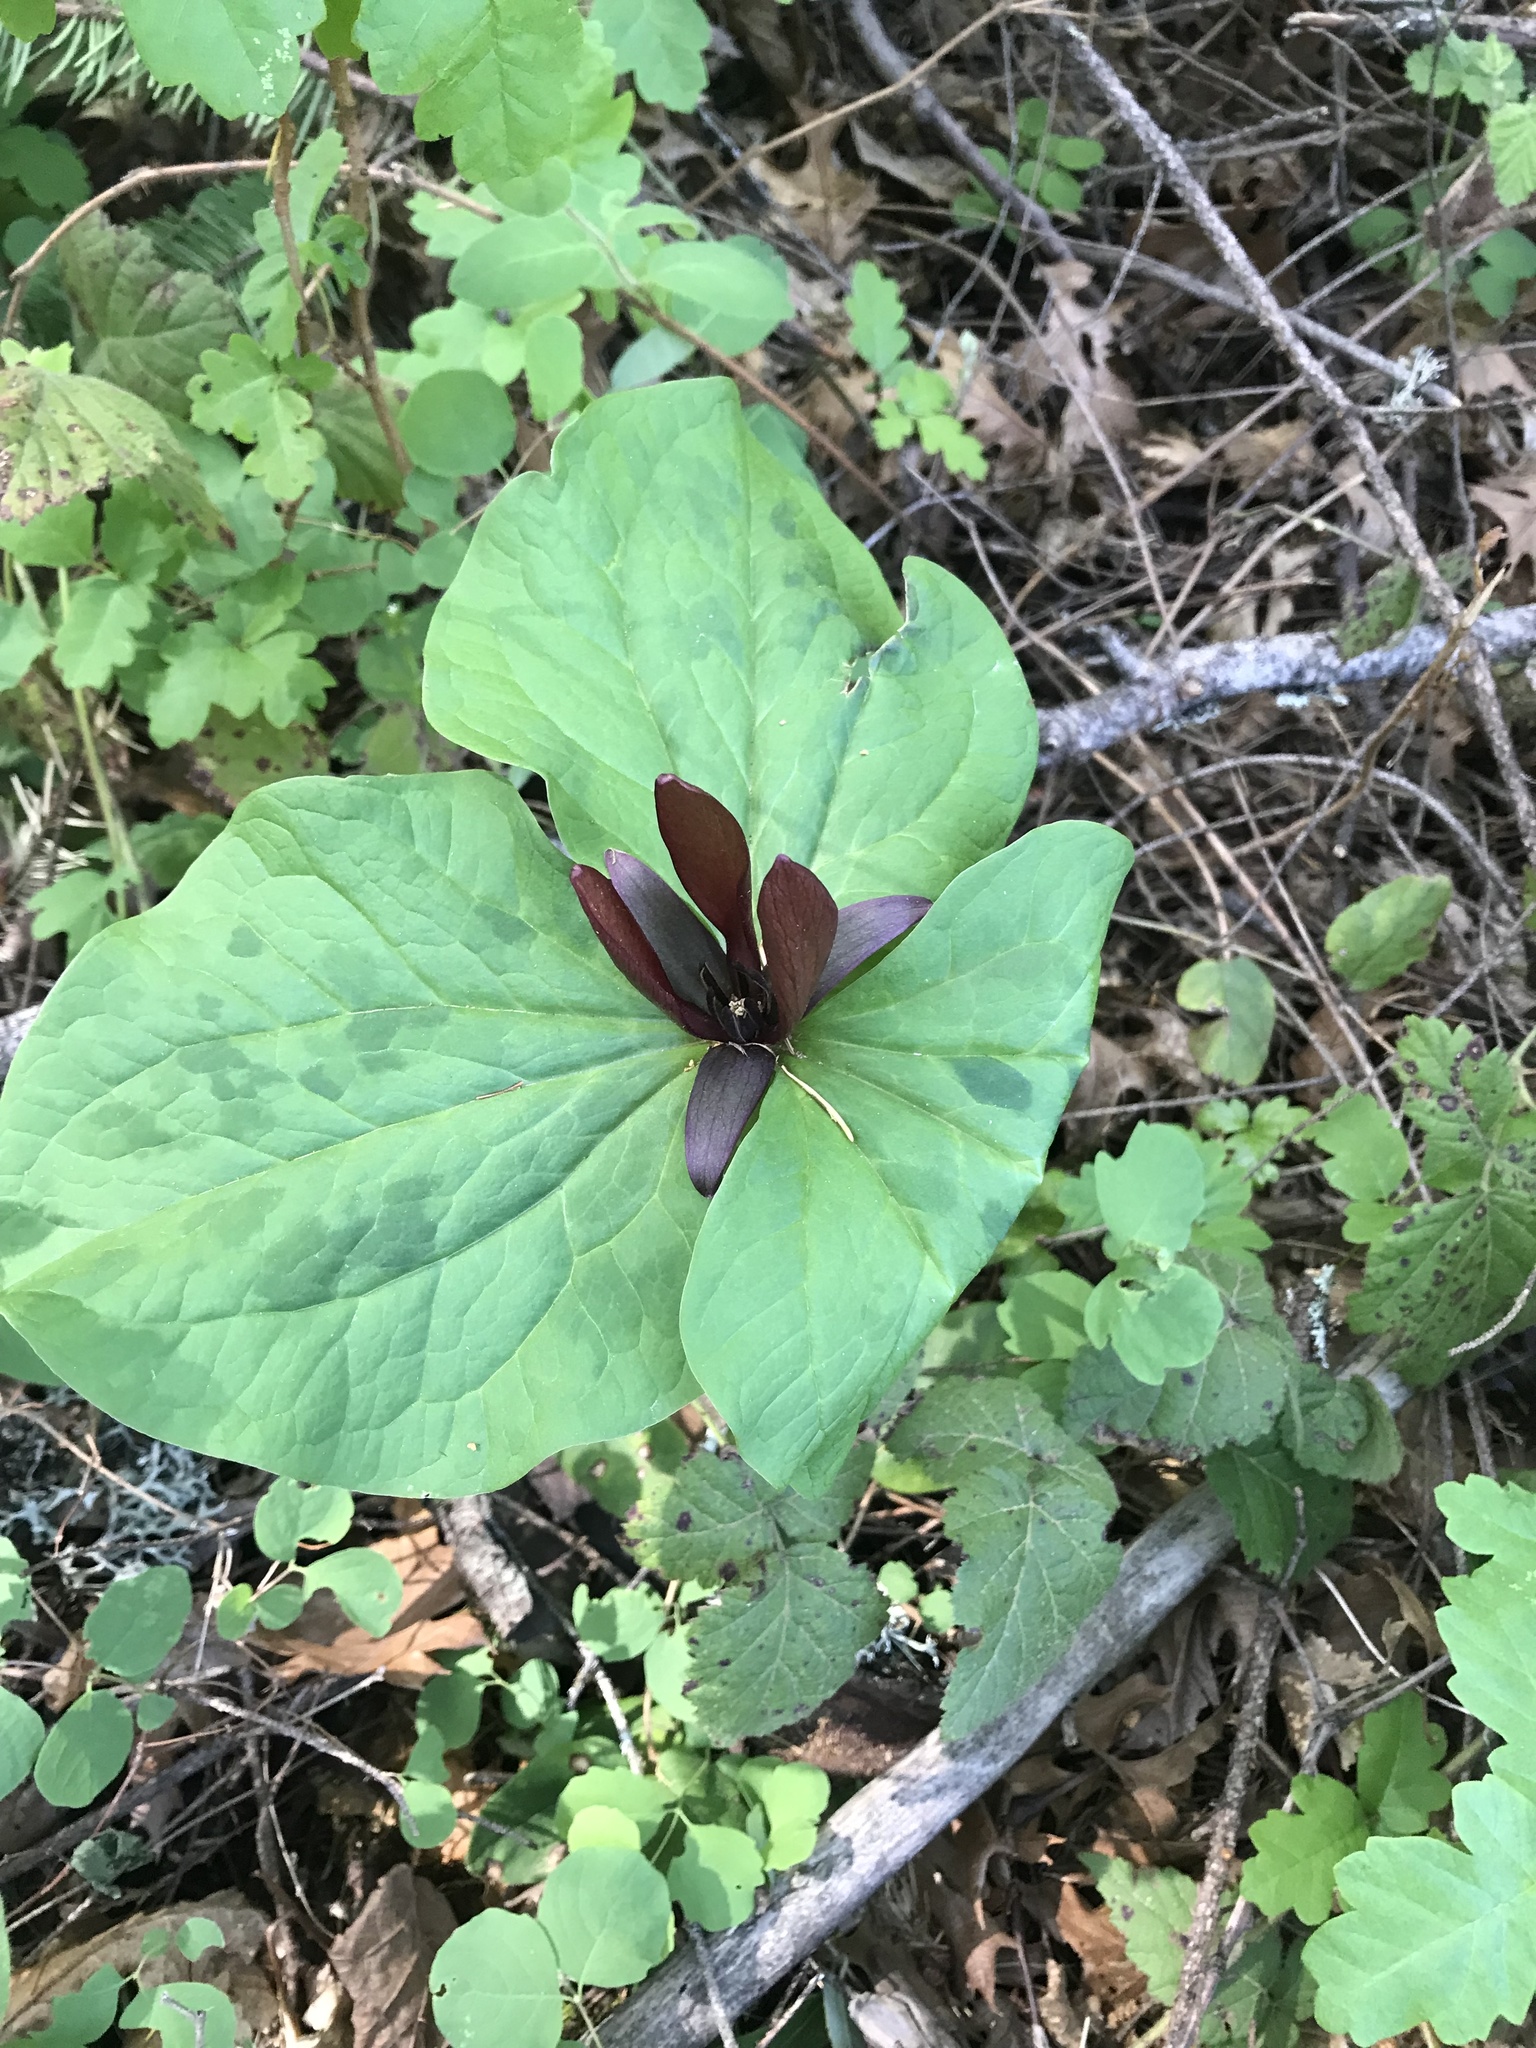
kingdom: Plantae
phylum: Tracheophyta
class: Liliopsida
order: Liliales
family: Melanthiaceae
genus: Trillium
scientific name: Trillium chloropetalum
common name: Giant trillium
